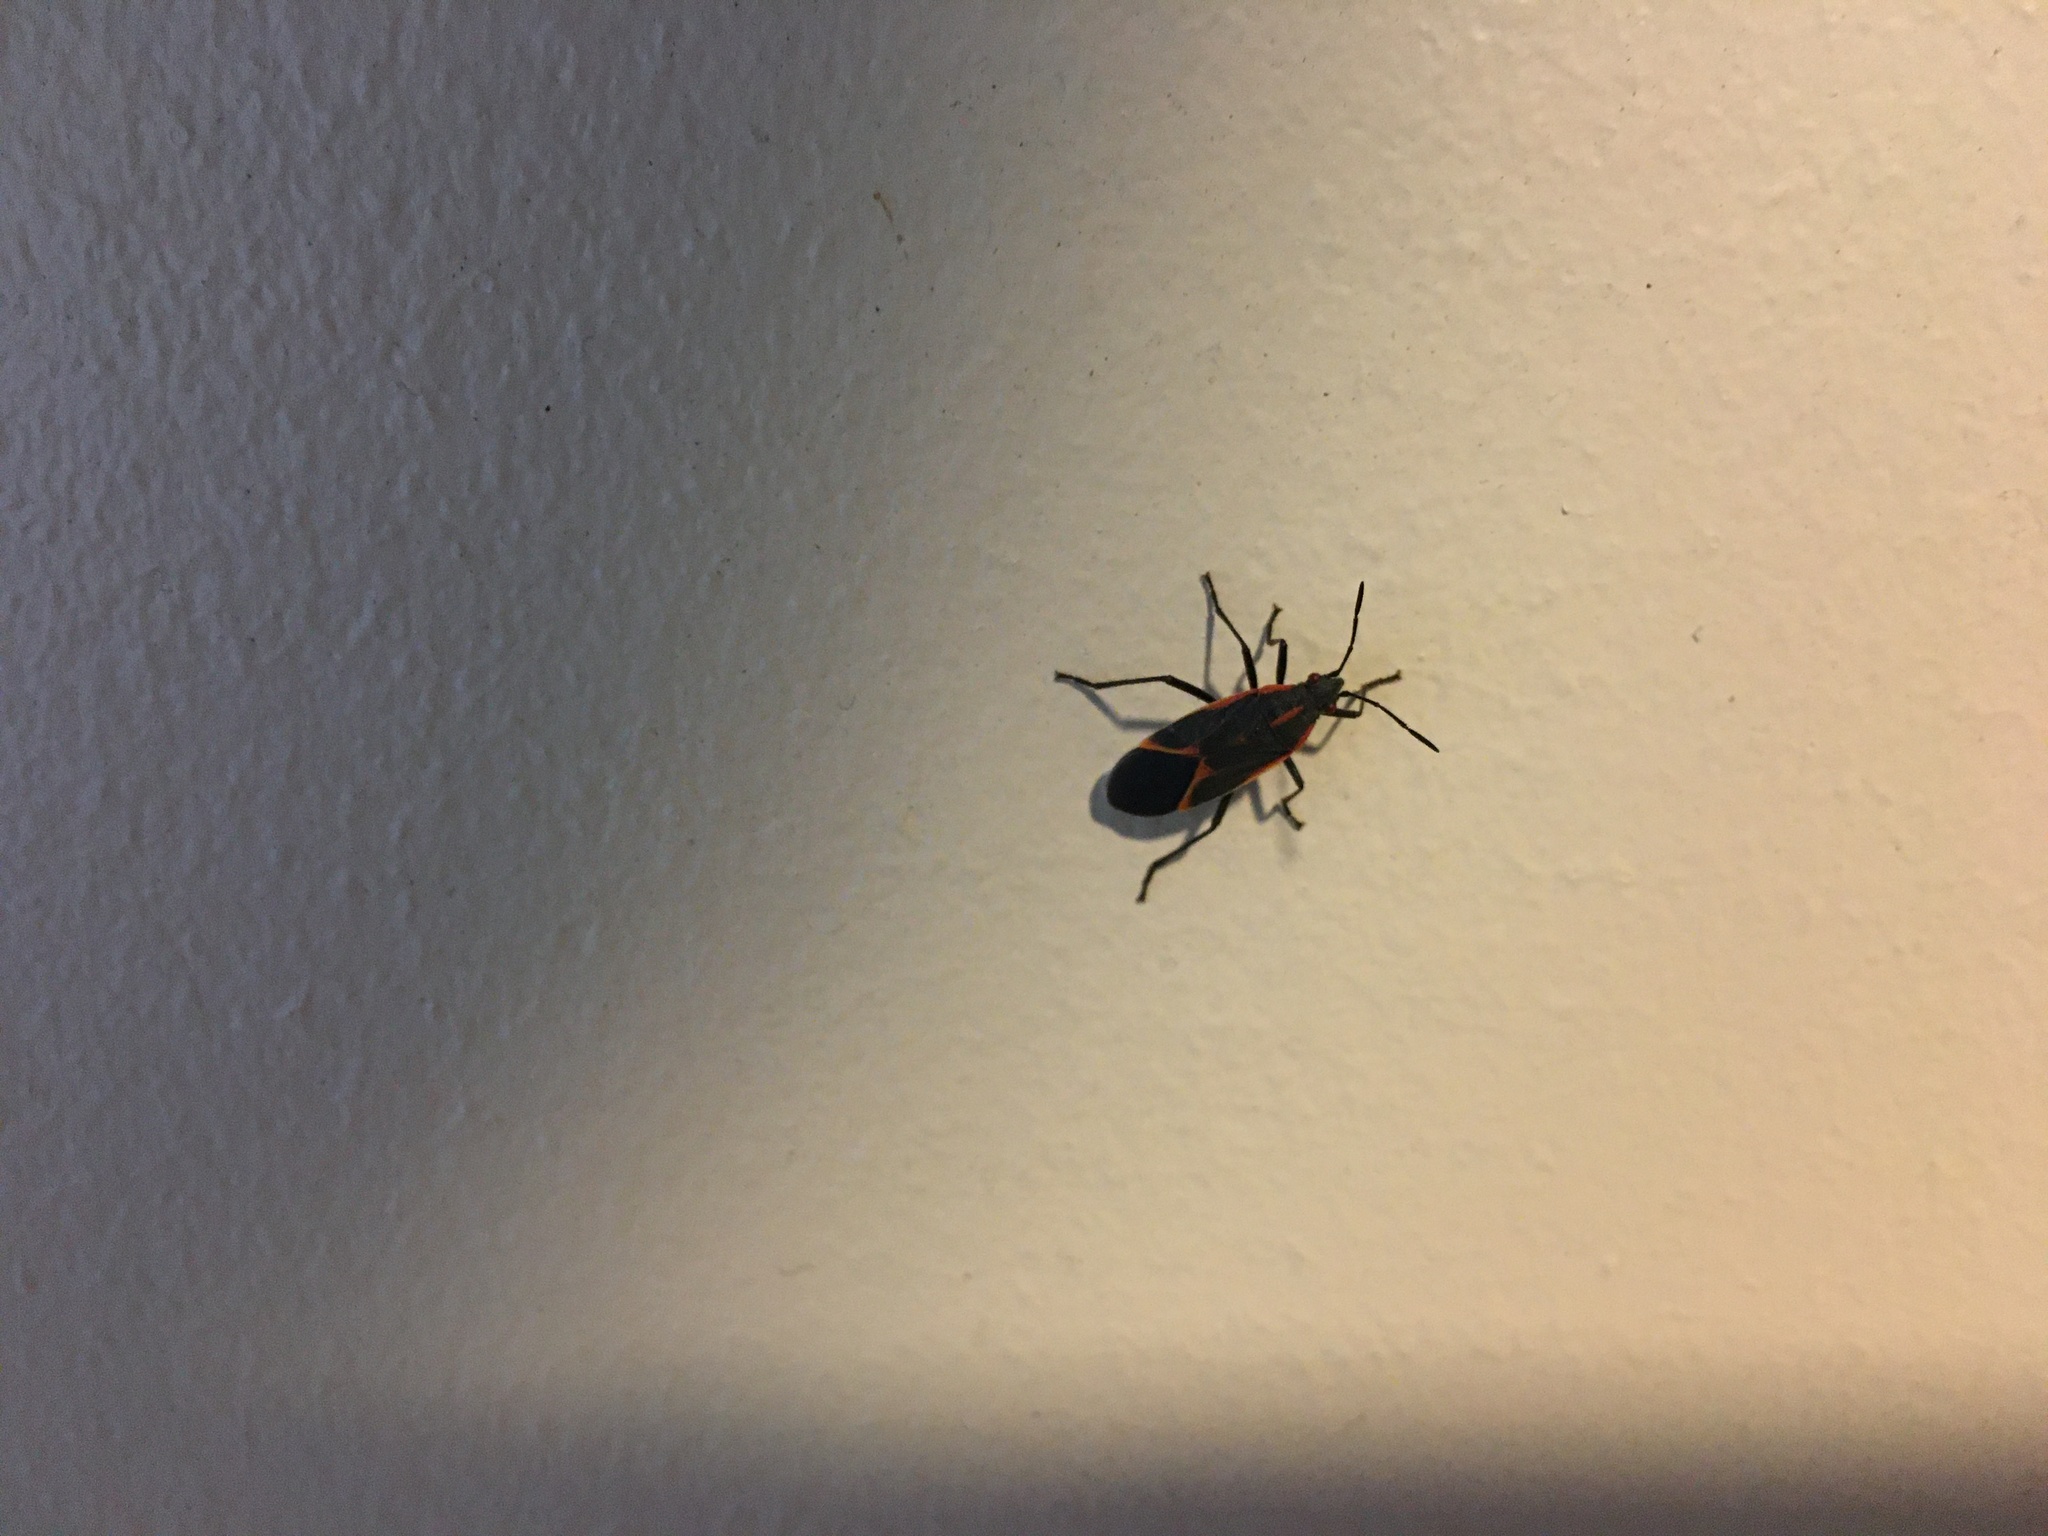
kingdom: Animalia
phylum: Arthropoda
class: Insecta
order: Hemiptera
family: Rhopalidae
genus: Boisea
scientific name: Boisea trivittata
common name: Boxelder bug
